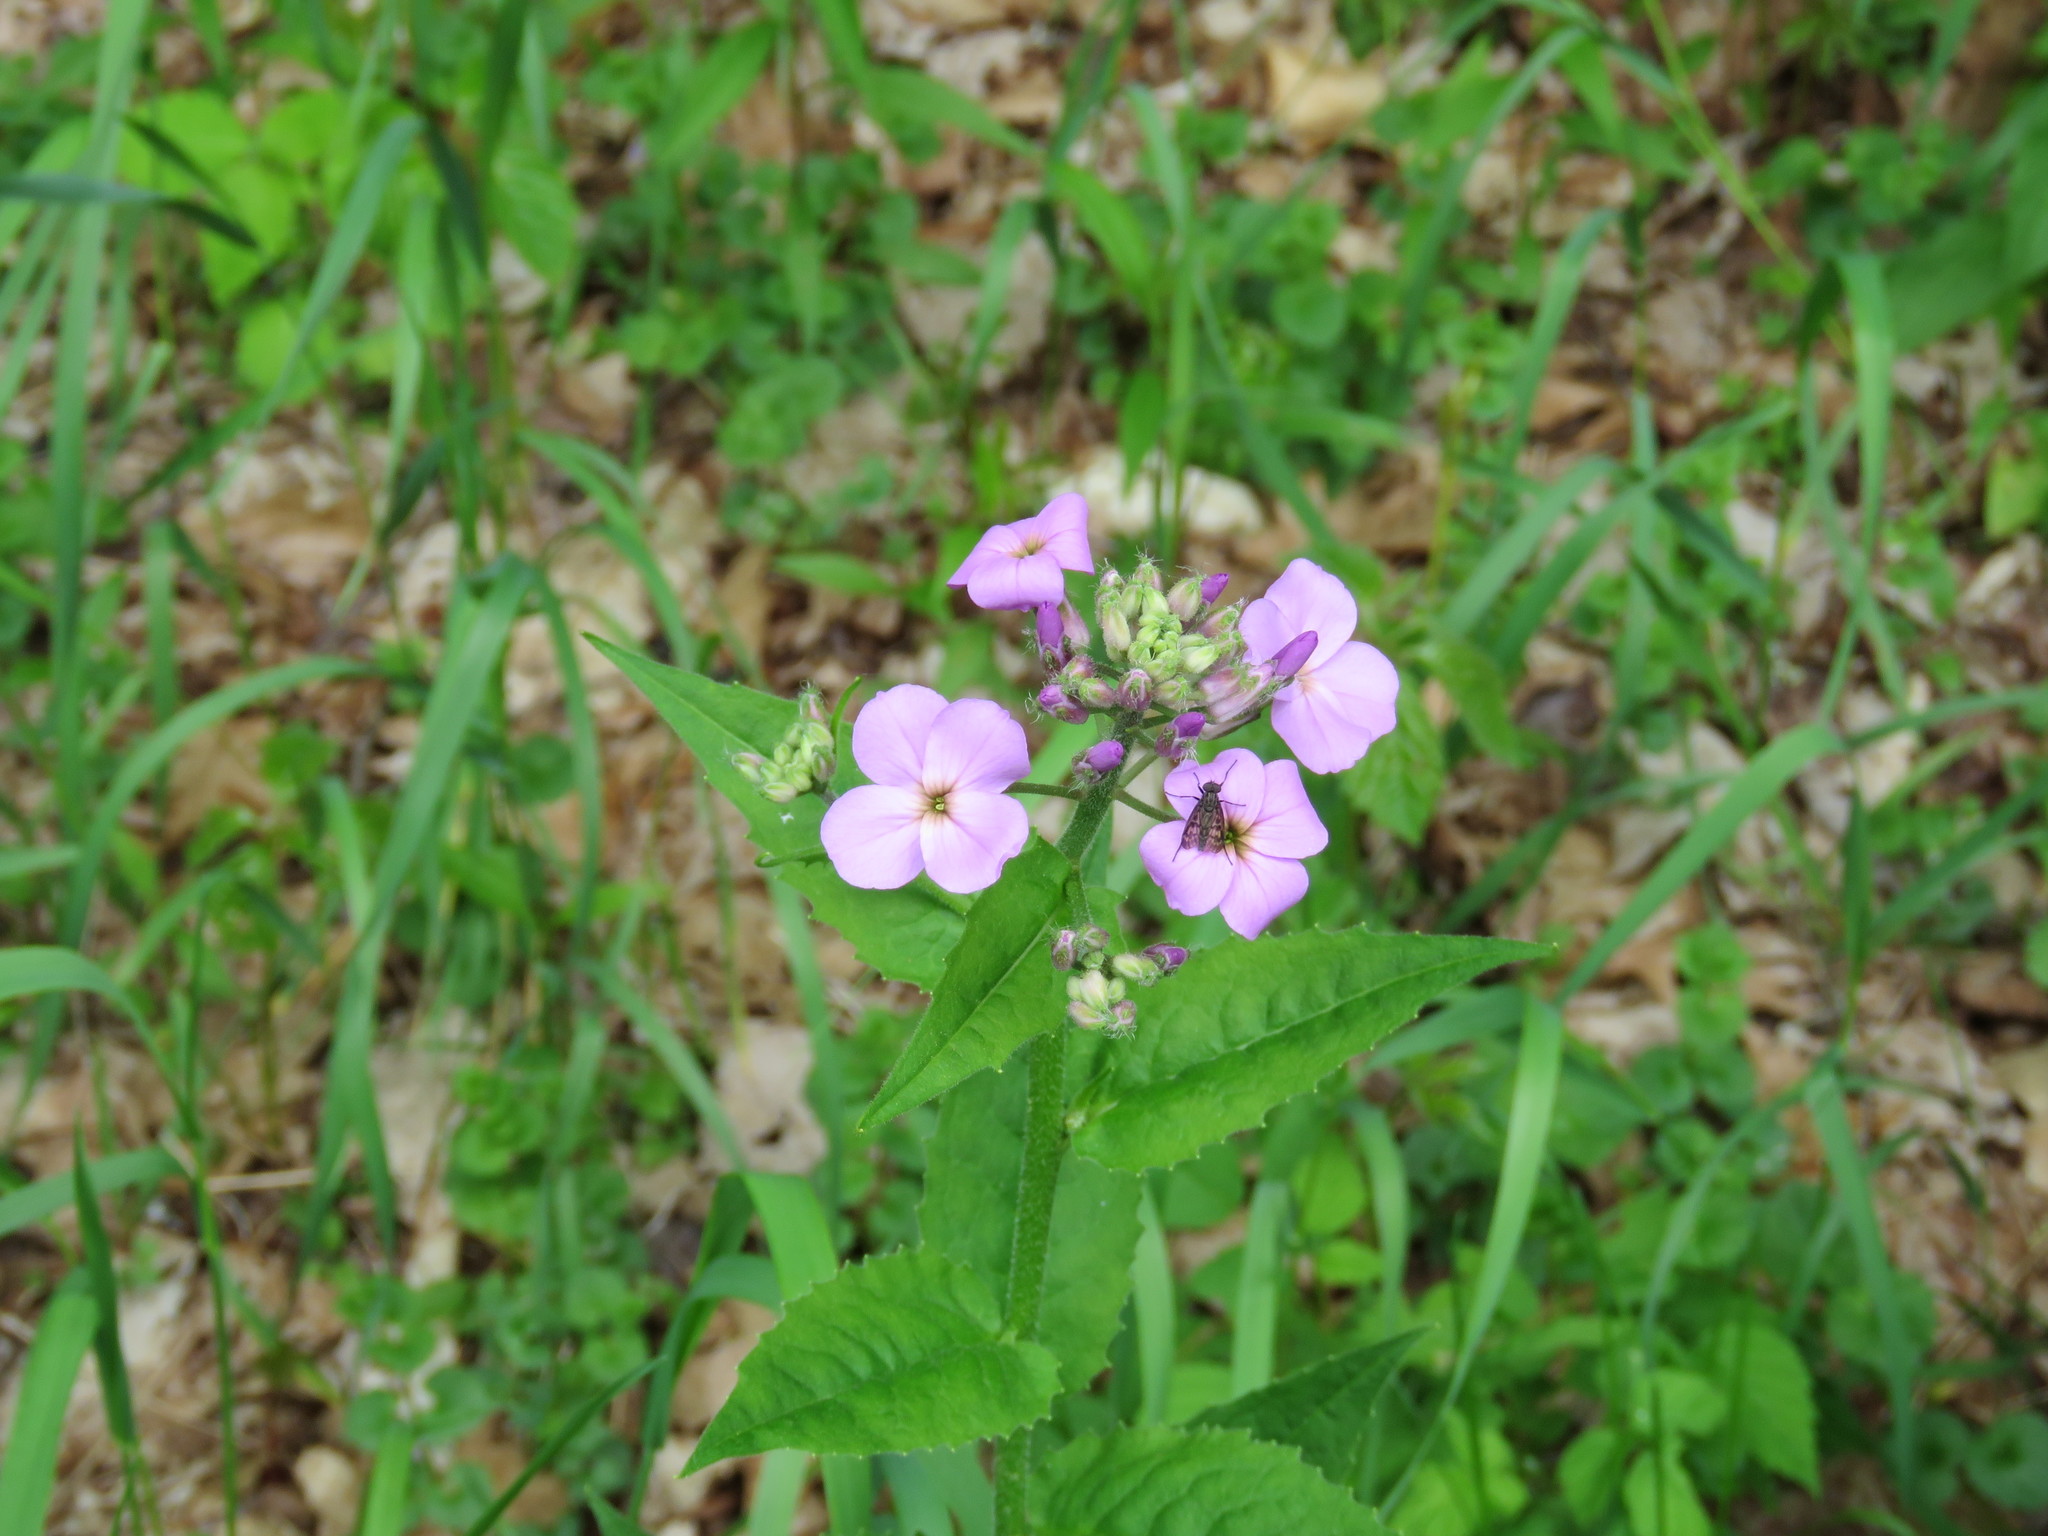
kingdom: Plantae
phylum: Tracheophyta
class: Magnoliopsida
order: Brassicales
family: Brassicaceae
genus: Hesperis
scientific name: Hesperis matronalis
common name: Dame's-violet
